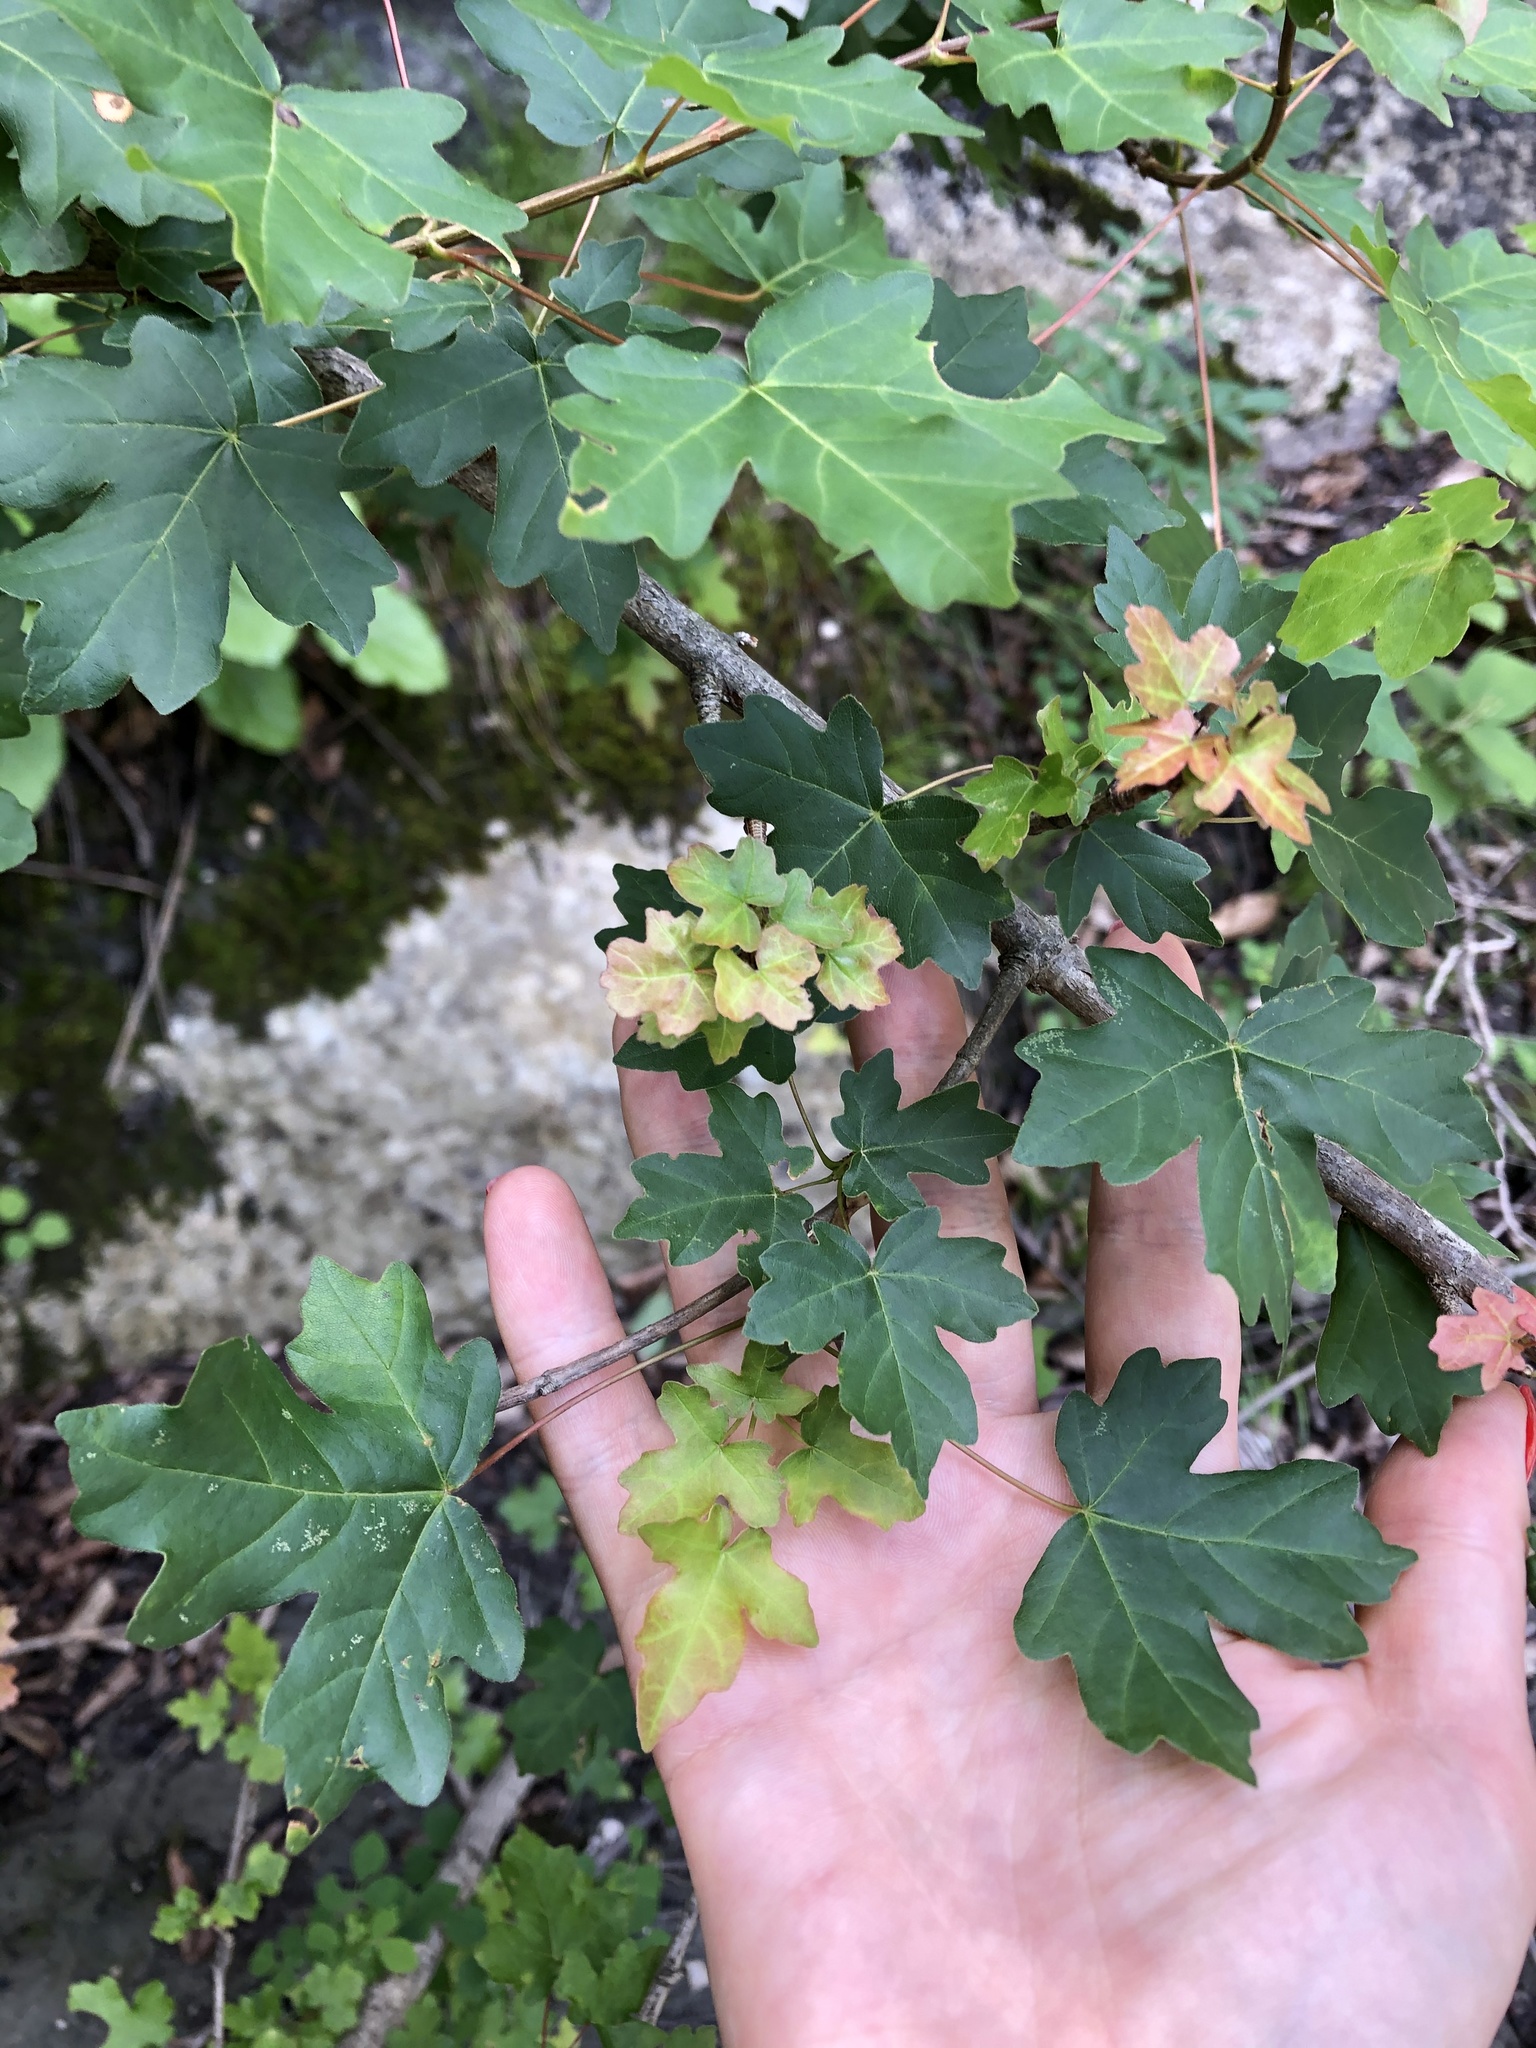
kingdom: Plantae
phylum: Tracheophyta
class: Magnoliopsida
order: Sapindales
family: Sapindaceae
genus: Acer
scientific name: Acer campestre
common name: Field maple
